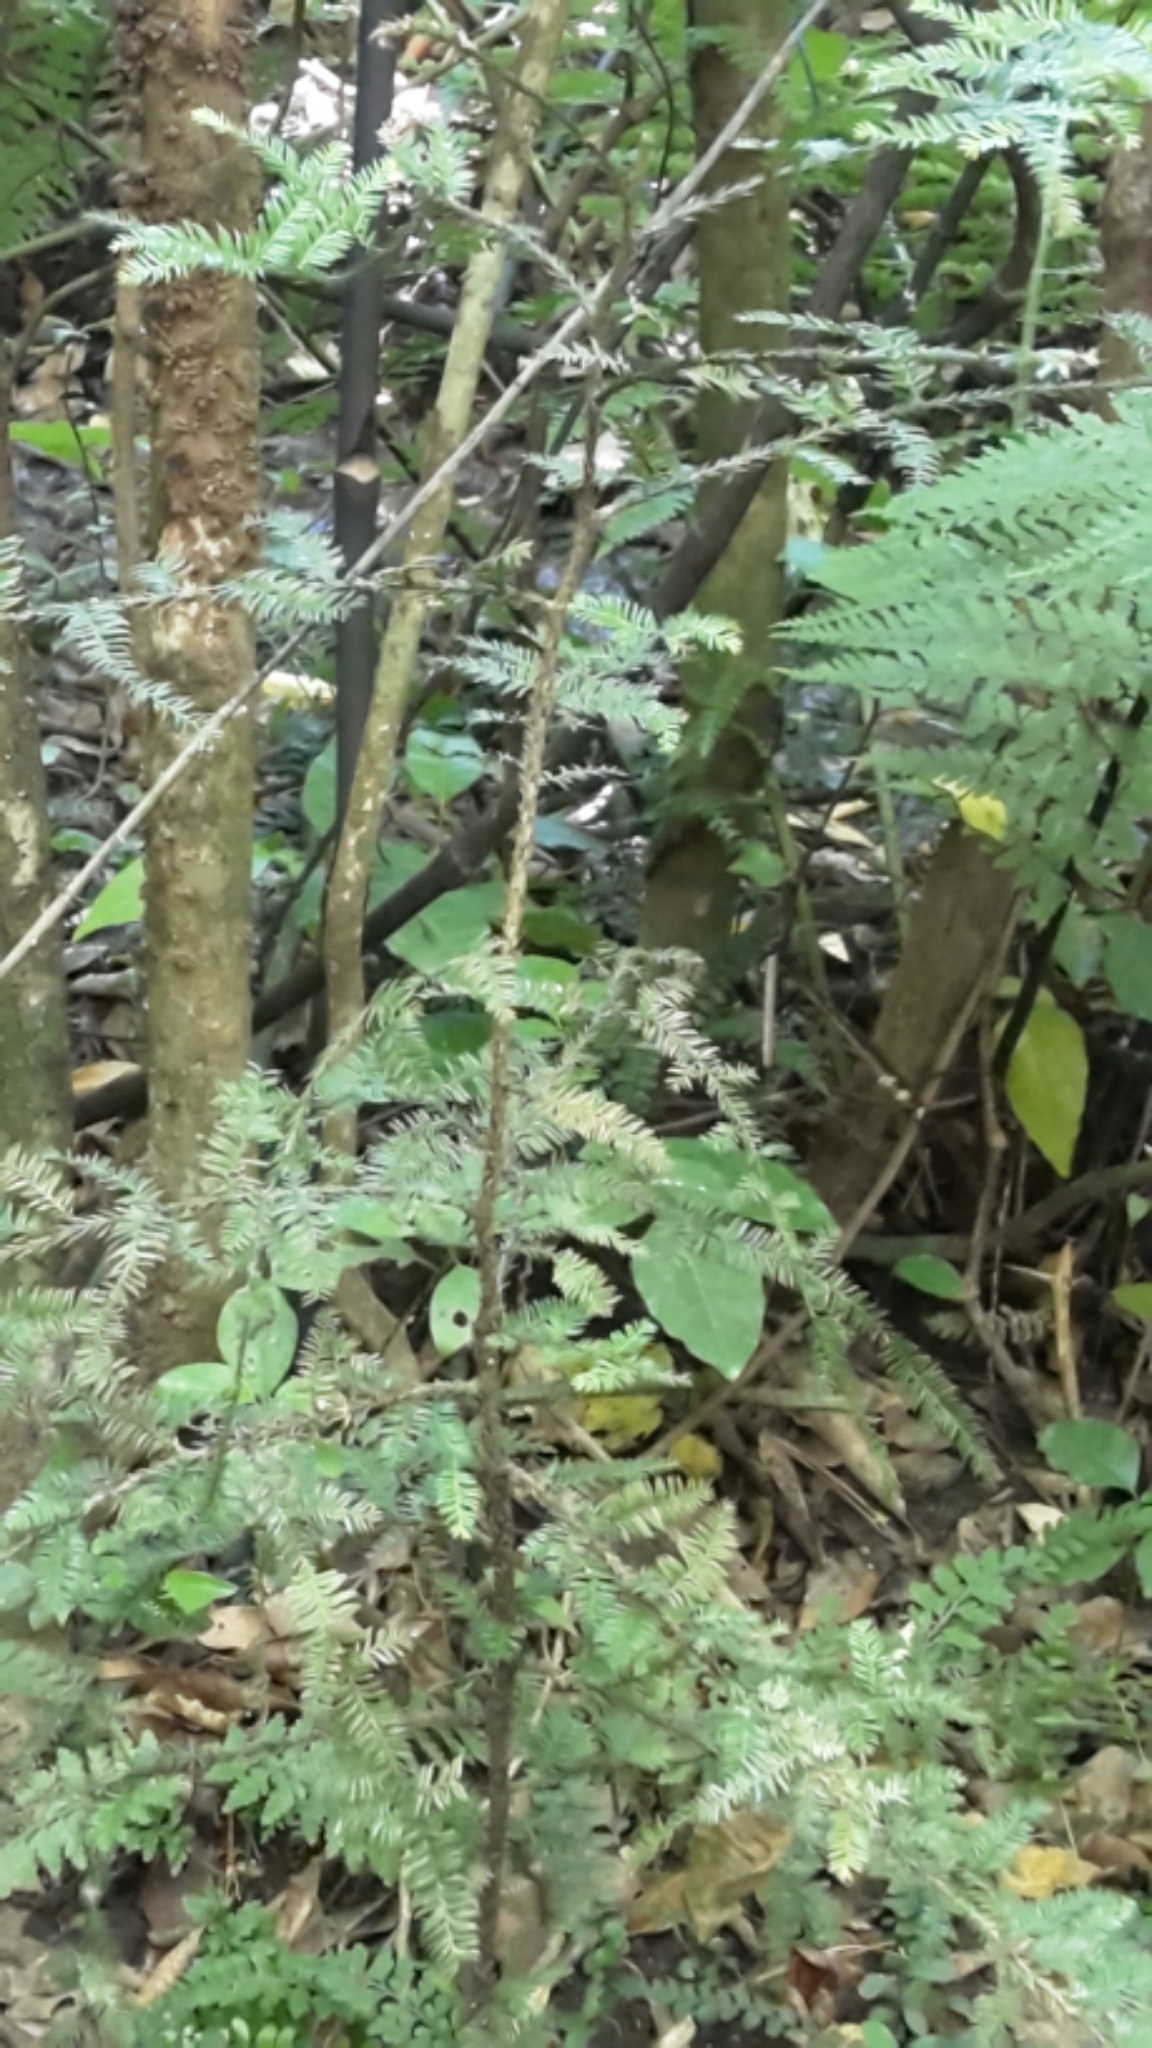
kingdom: Plantae
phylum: Tracheophyta
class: Pinopsida
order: Pinales
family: Podocarpaceae
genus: Dacrycarpus
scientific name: Dacrycarpus dacrydioides
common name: White pine
